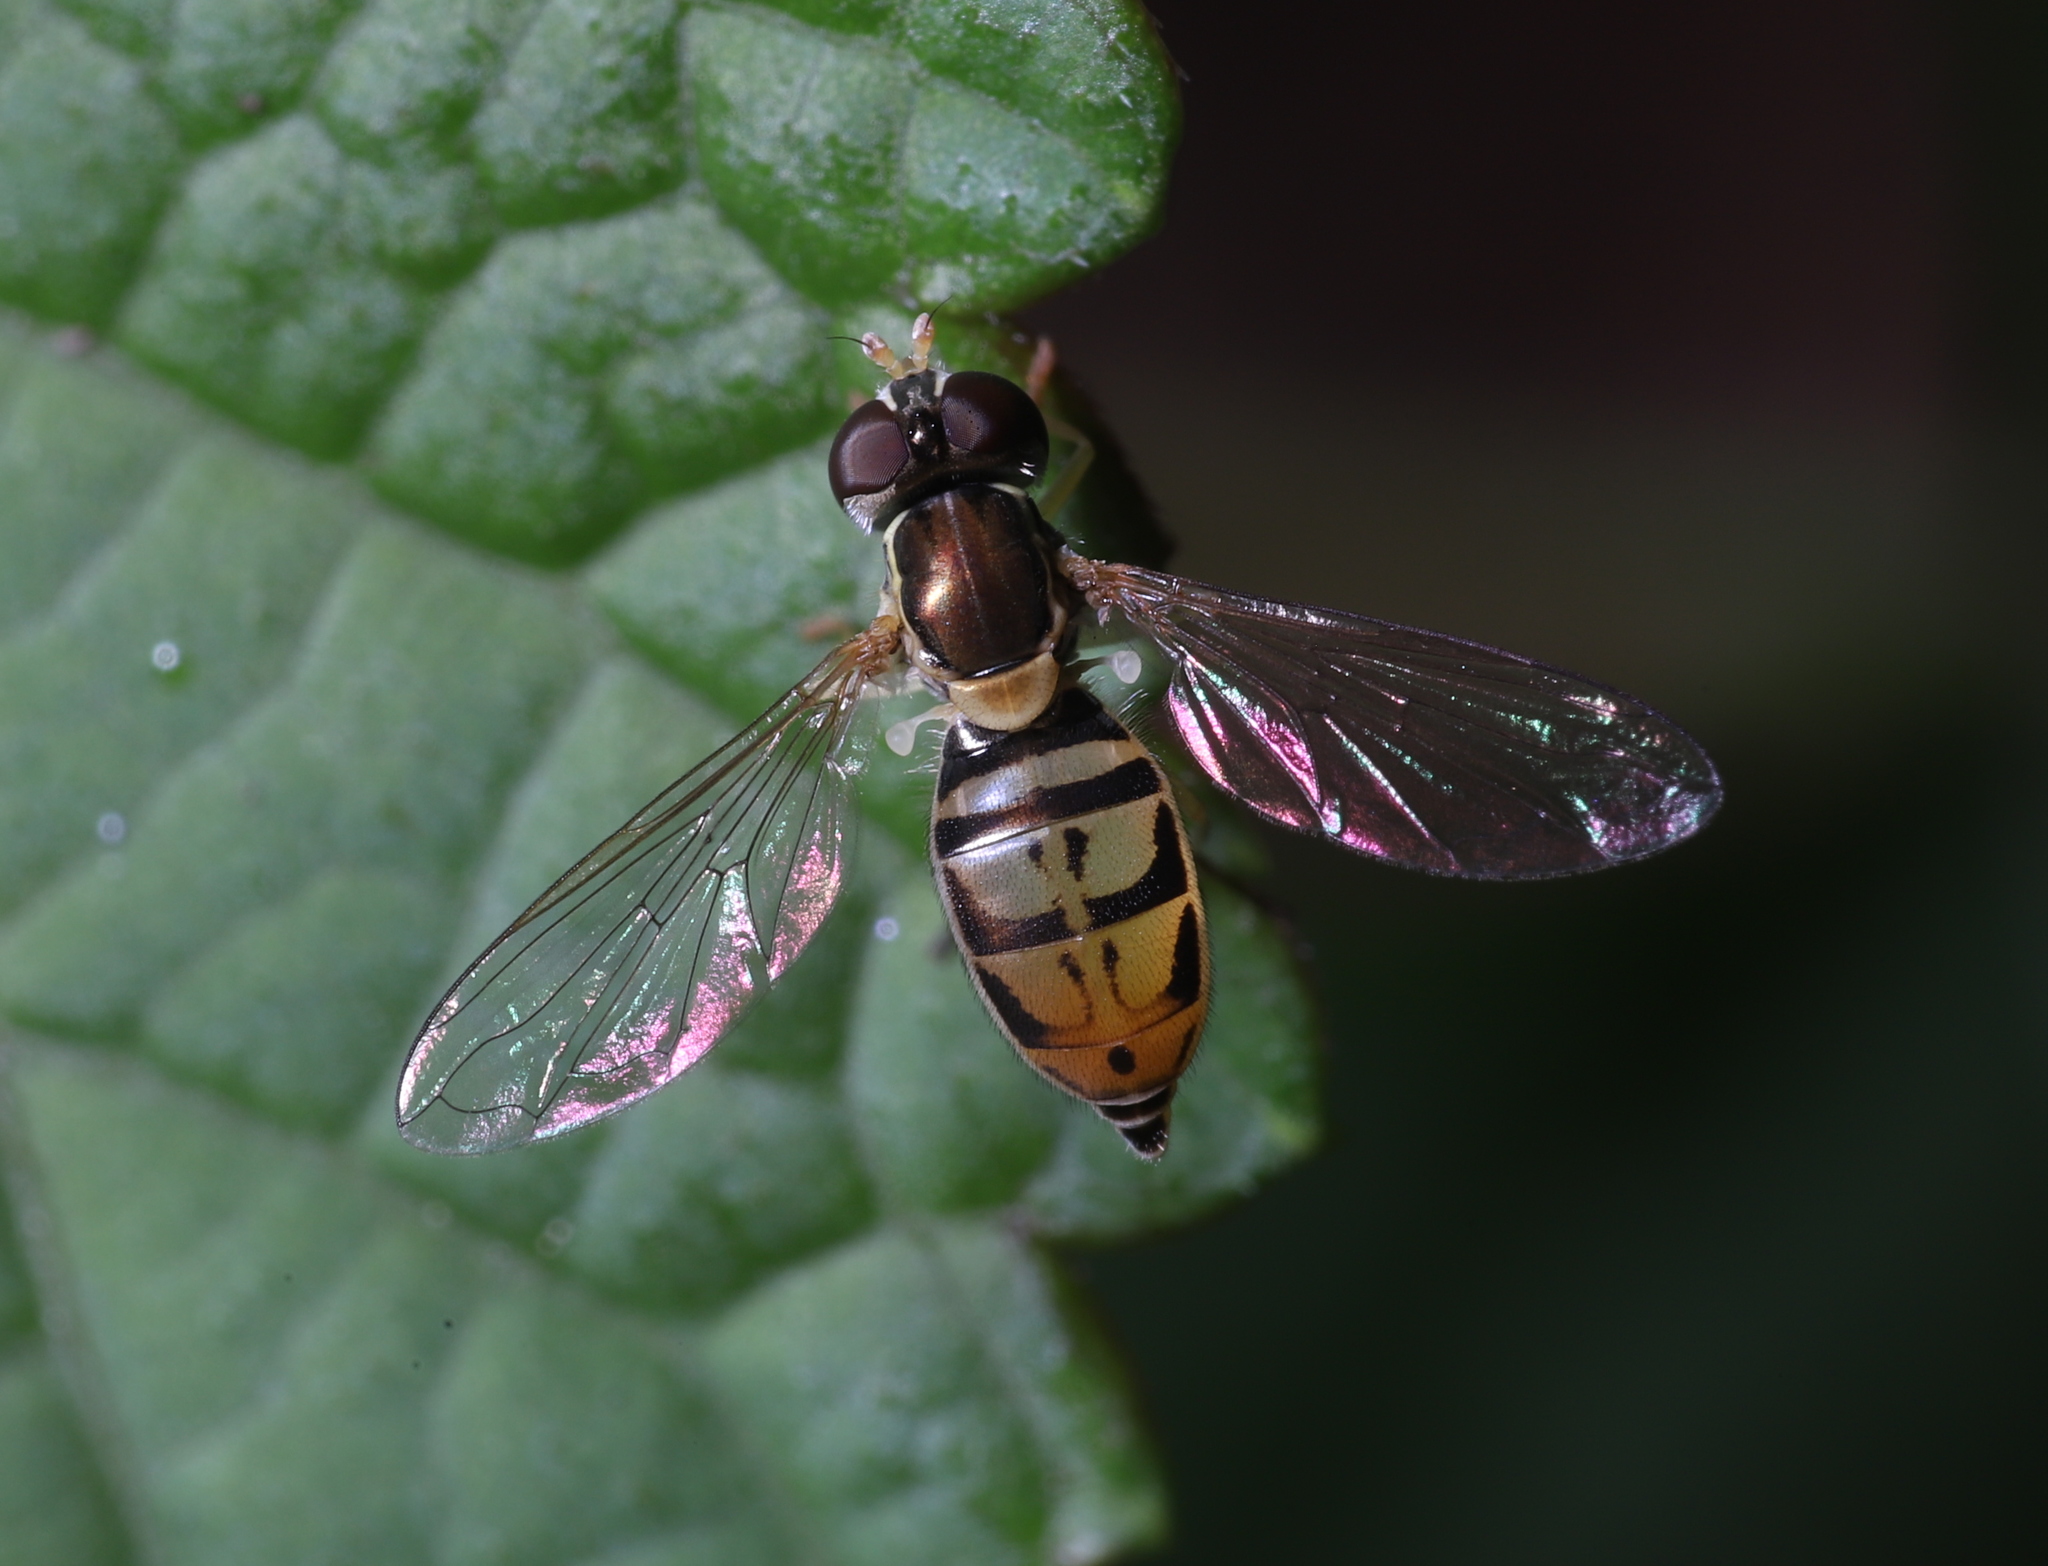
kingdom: Animalia
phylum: Arthropoda
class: Insecta
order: Diptera
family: Syrphidae
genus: Toxomerus
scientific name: Toxomerus marginatus
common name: Syrphid fly
